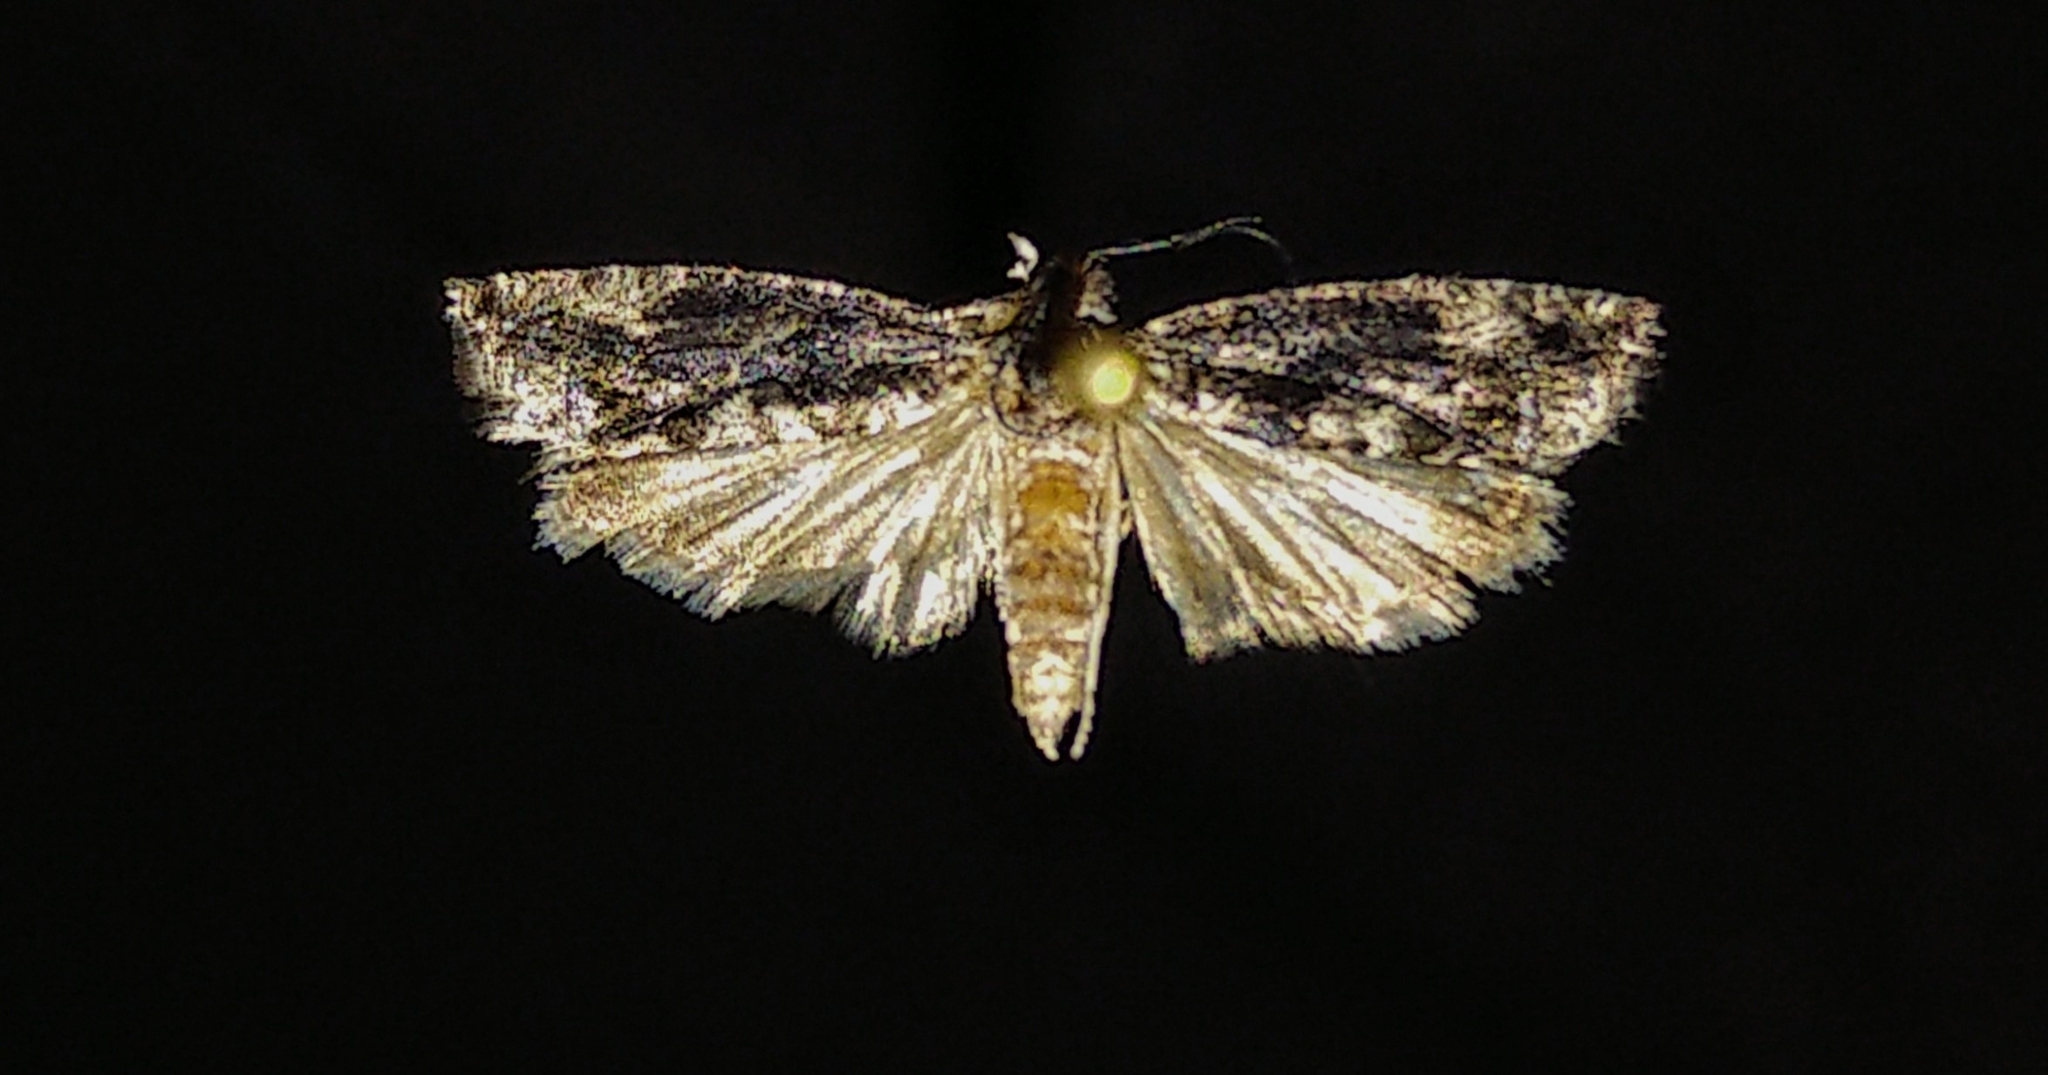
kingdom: Animalia
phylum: Arthropoda
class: Insecta
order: Lepidoptera
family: Tortricidae
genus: Epinotia
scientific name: Epinotia nisella
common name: Grey poplar bell
